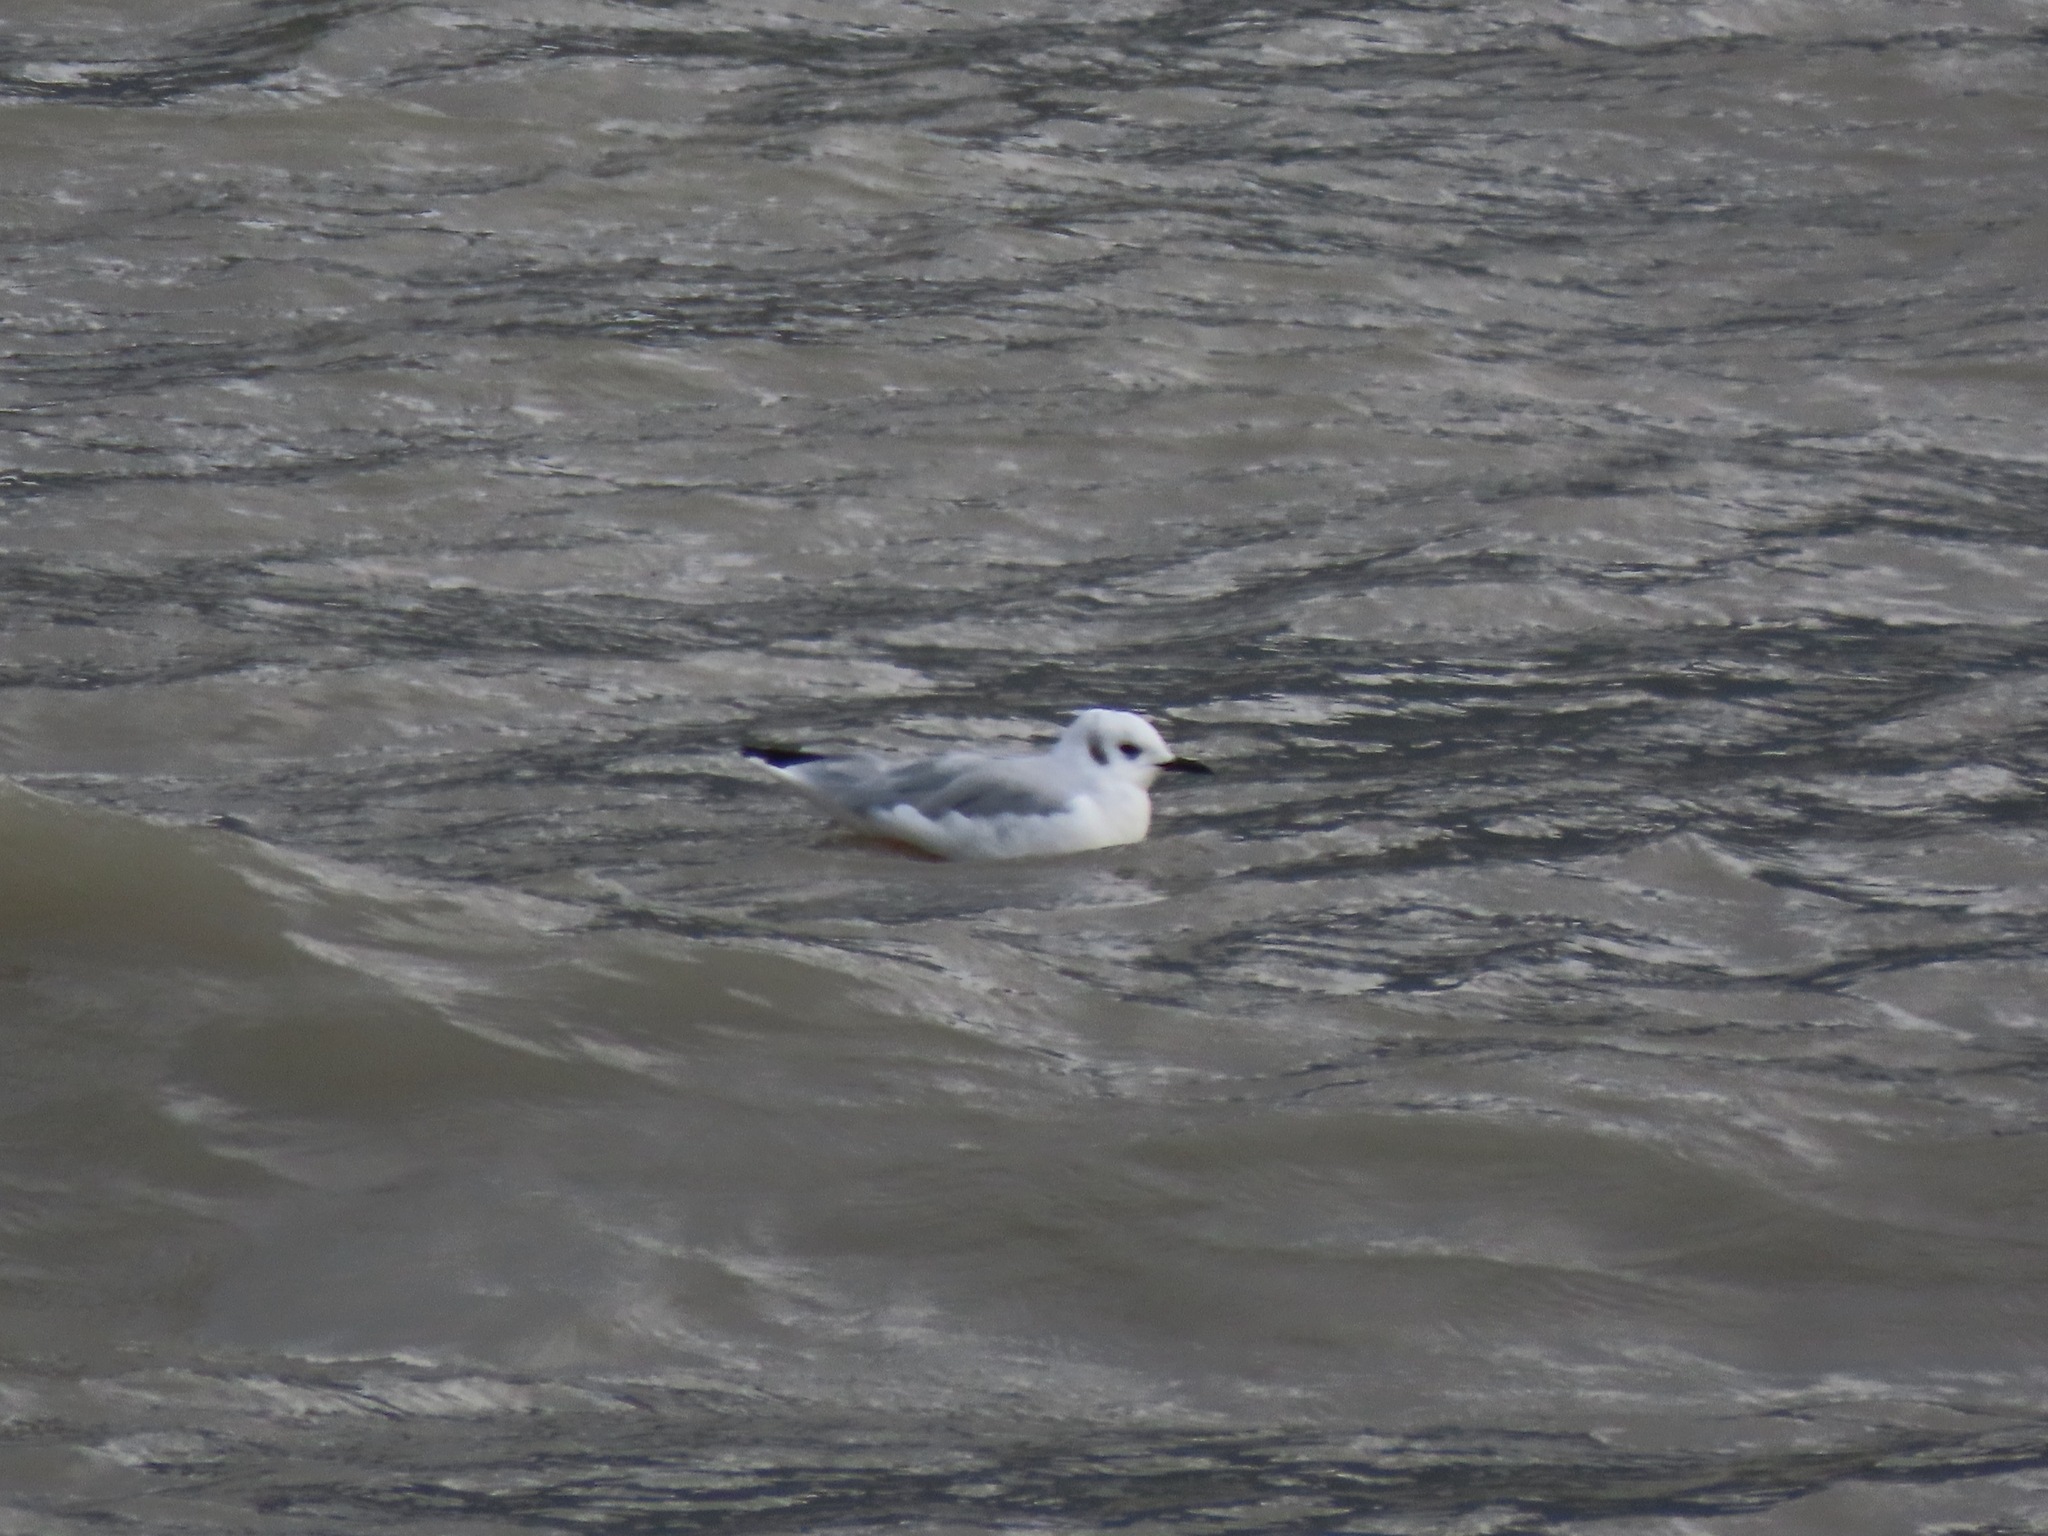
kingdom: Animalia
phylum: Chordata
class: Aves
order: Charadriiformes
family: Laridae
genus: Chroicocephalus
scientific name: Chroicocephalus philadelphia
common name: Bonaparte's gull
